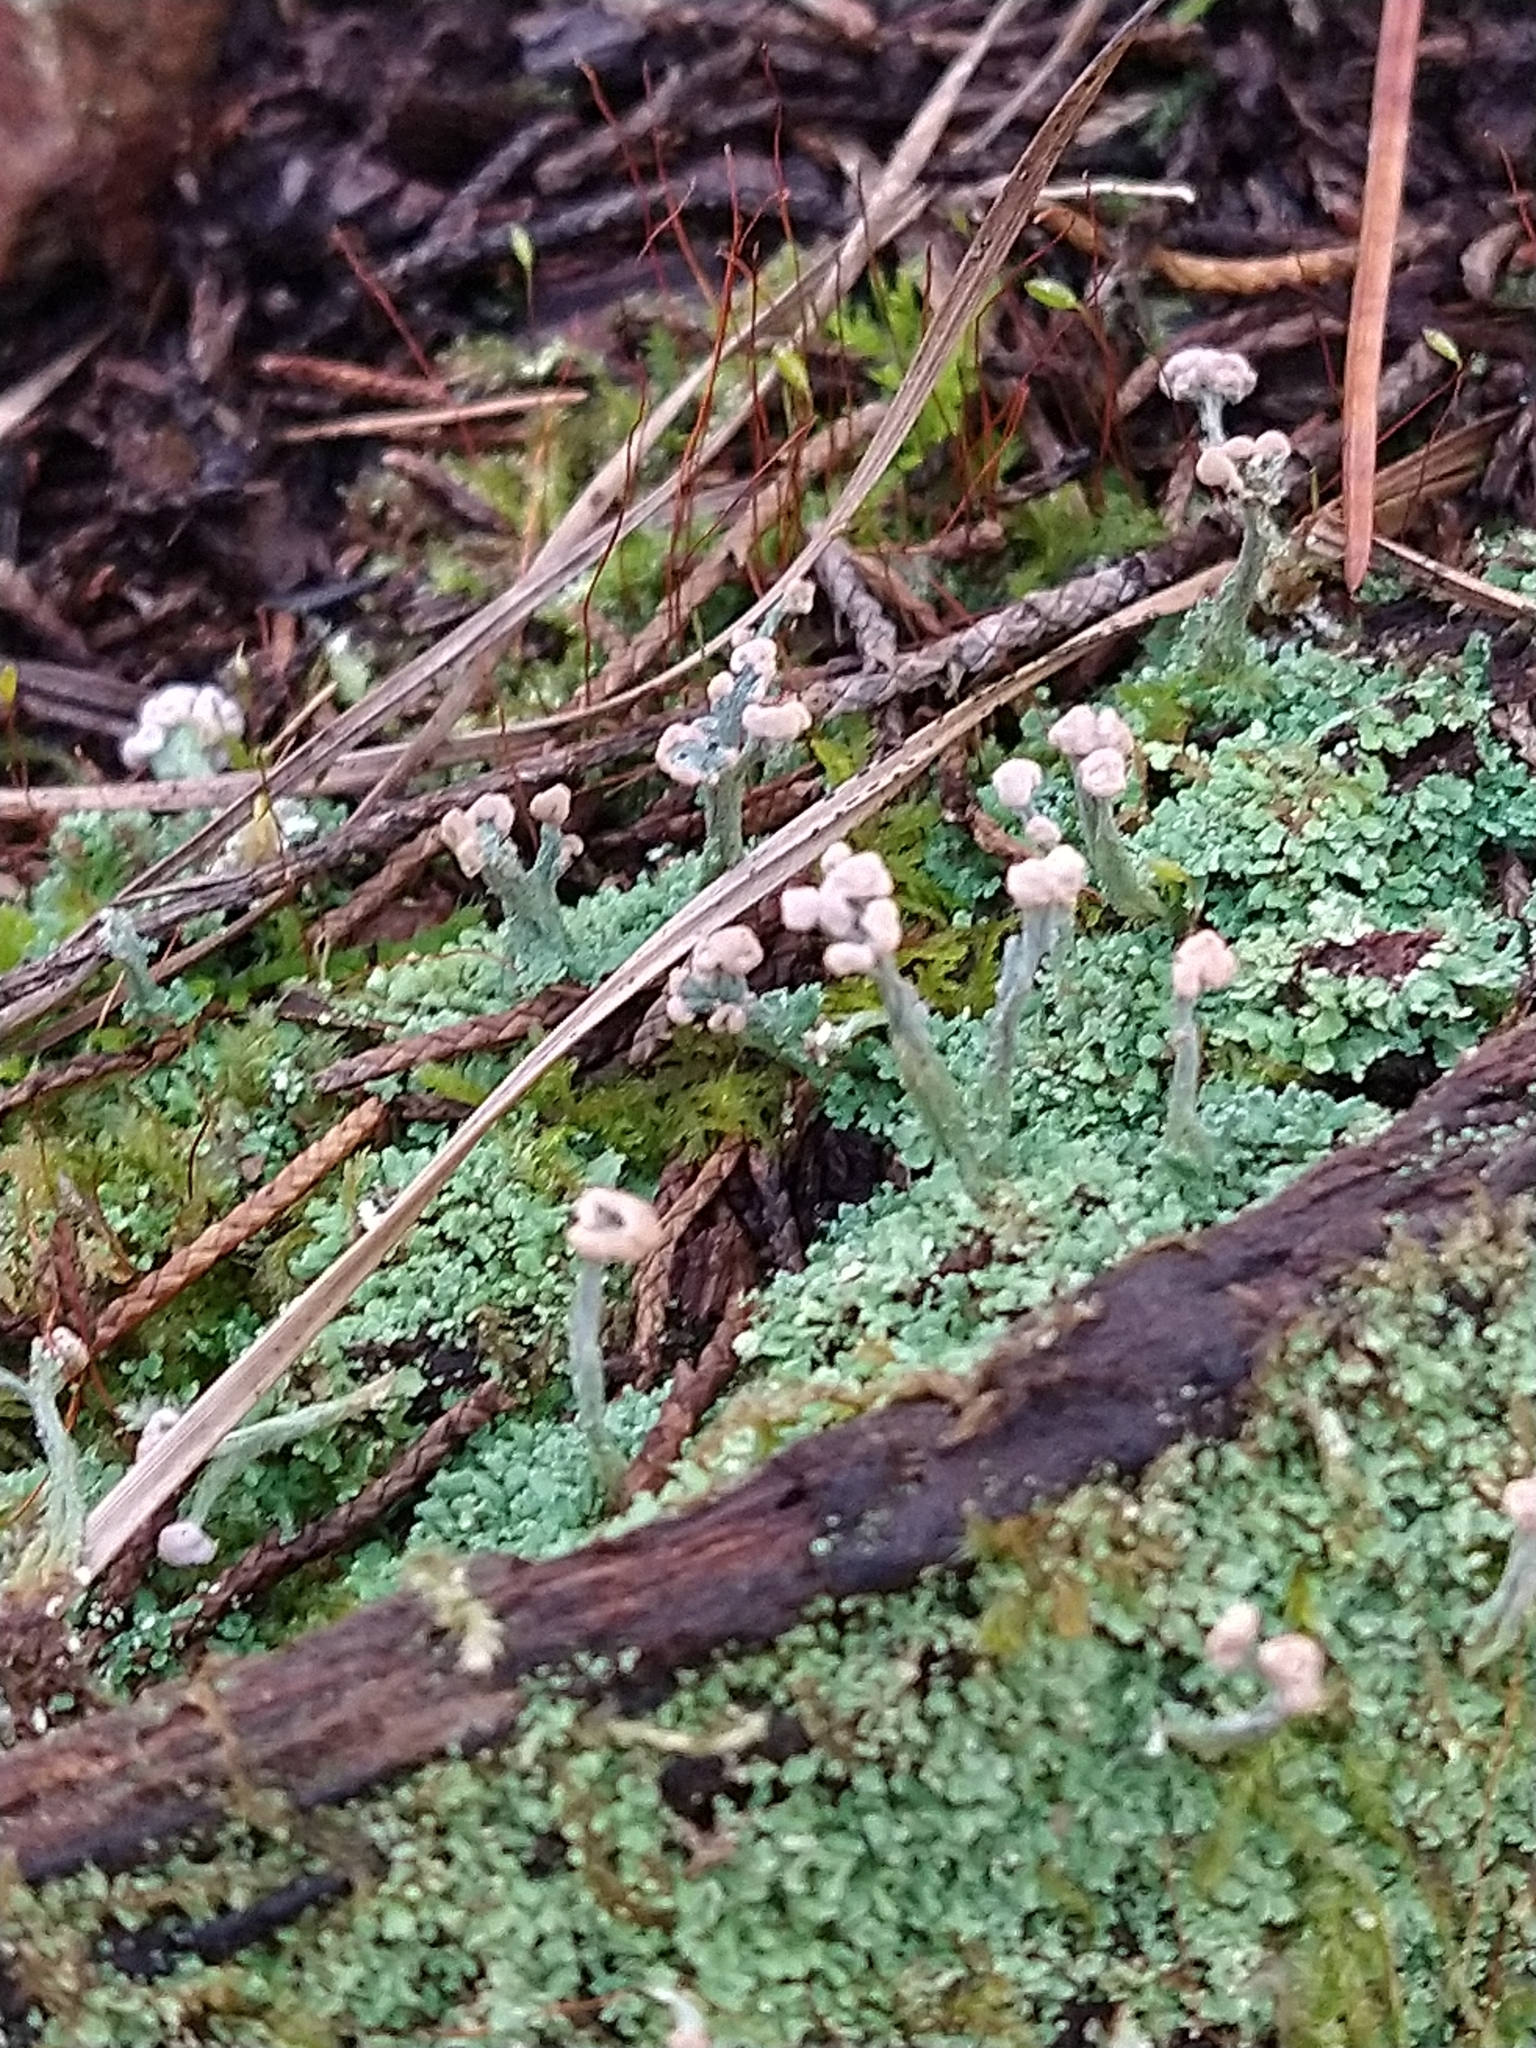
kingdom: Fungi
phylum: Ascomycota
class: Lecanoromycetes
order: Lecanorales
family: Cladoniaceae
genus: Cladonia
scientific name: Cladonia peziziformis
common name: Cup lichen
